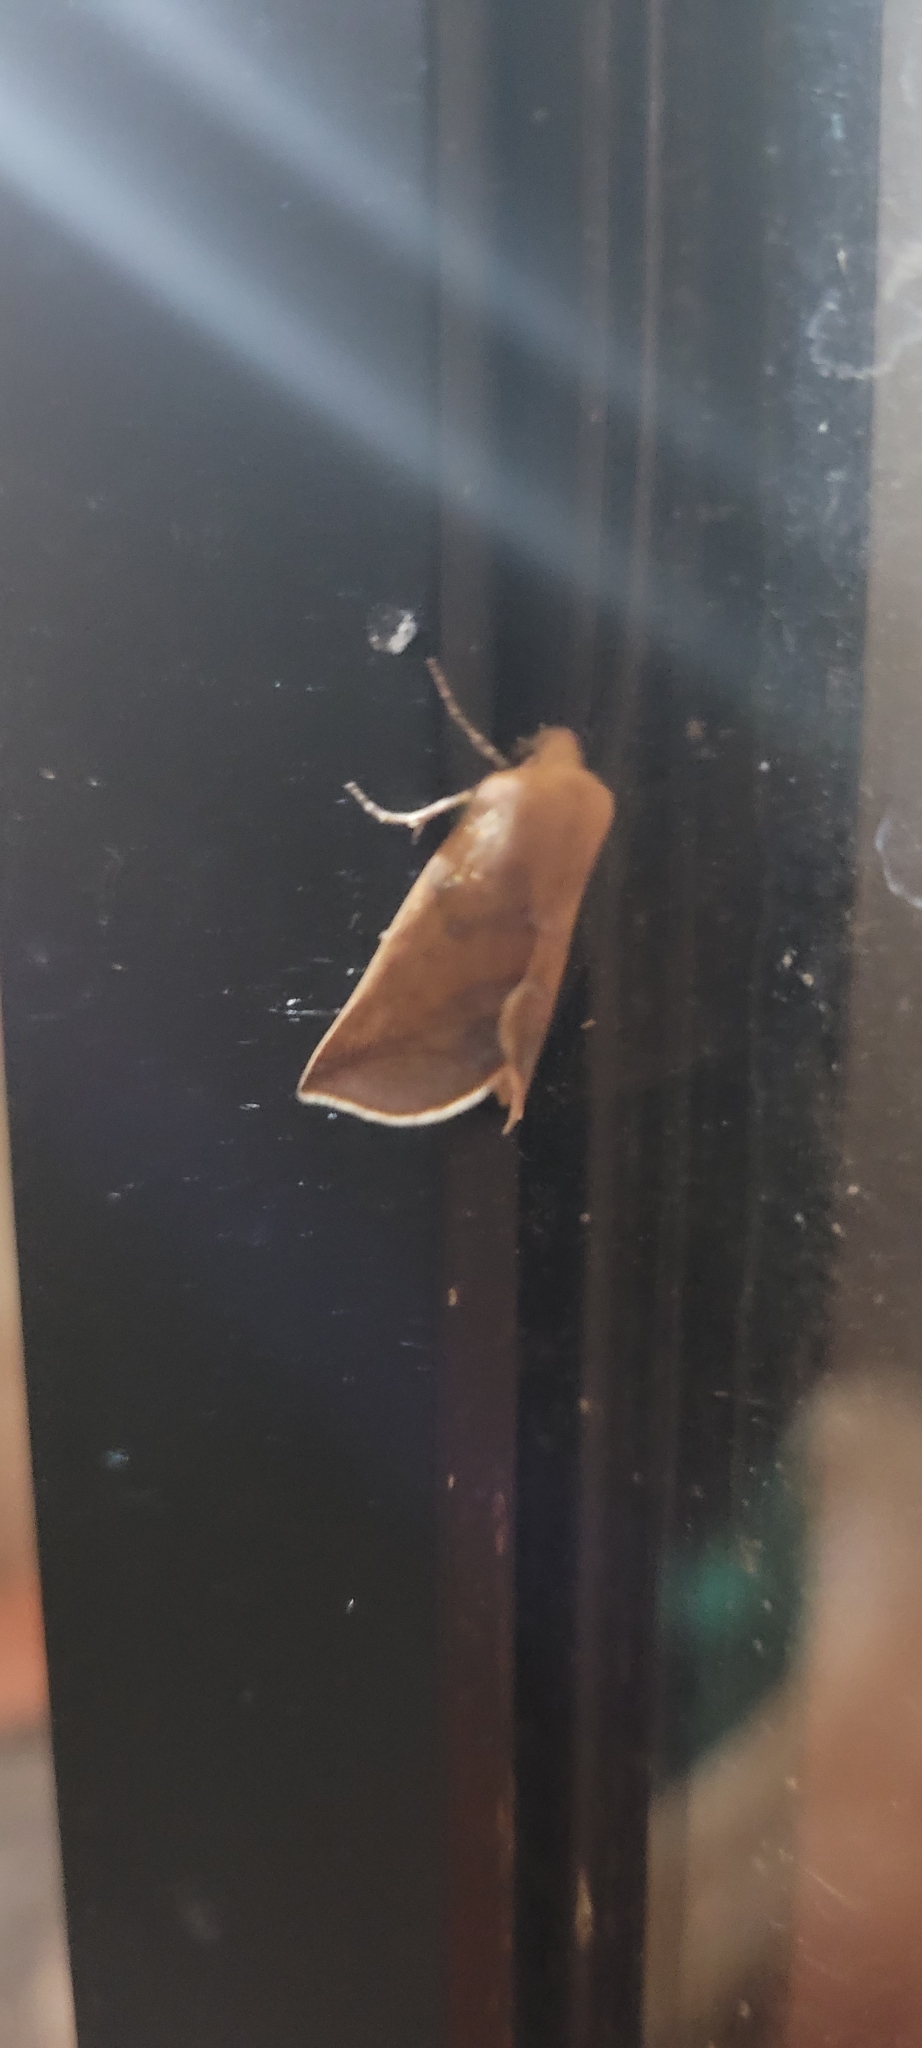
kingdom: Animalia
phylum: Arthropoda
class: Insecta
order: Lepidoptera
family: Geometridae
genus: Mallomus
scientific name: Mallomus falcata
